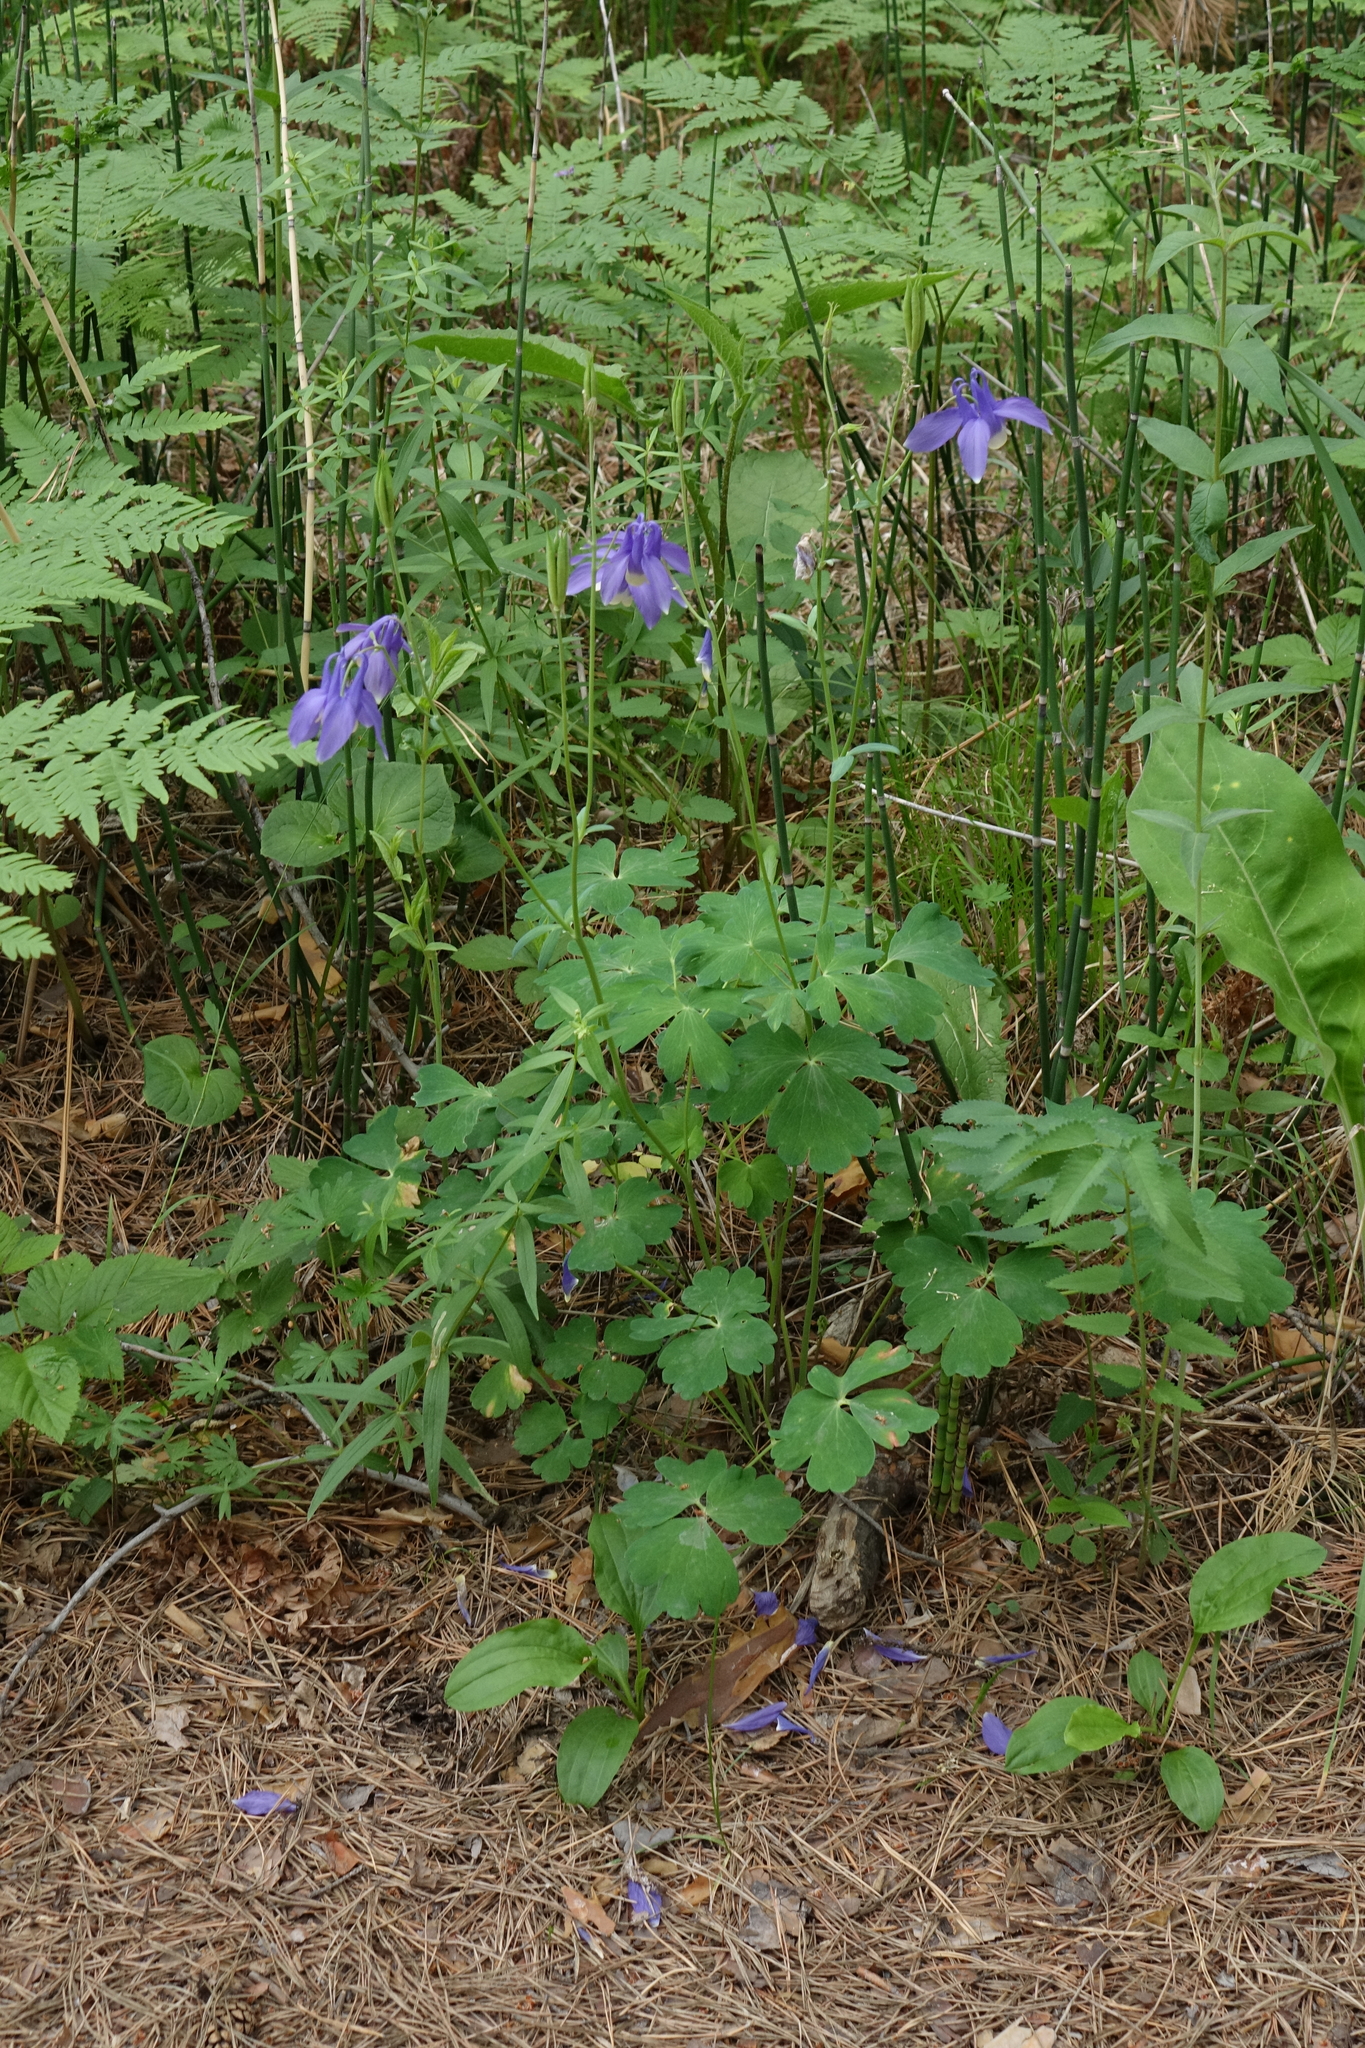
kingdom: Plantae
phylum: Tracheophyta
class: Magnoliopsida
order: Ranunculales
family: Ranunculaceae
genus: Aquilegia
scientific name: Aquilegia sibirica
